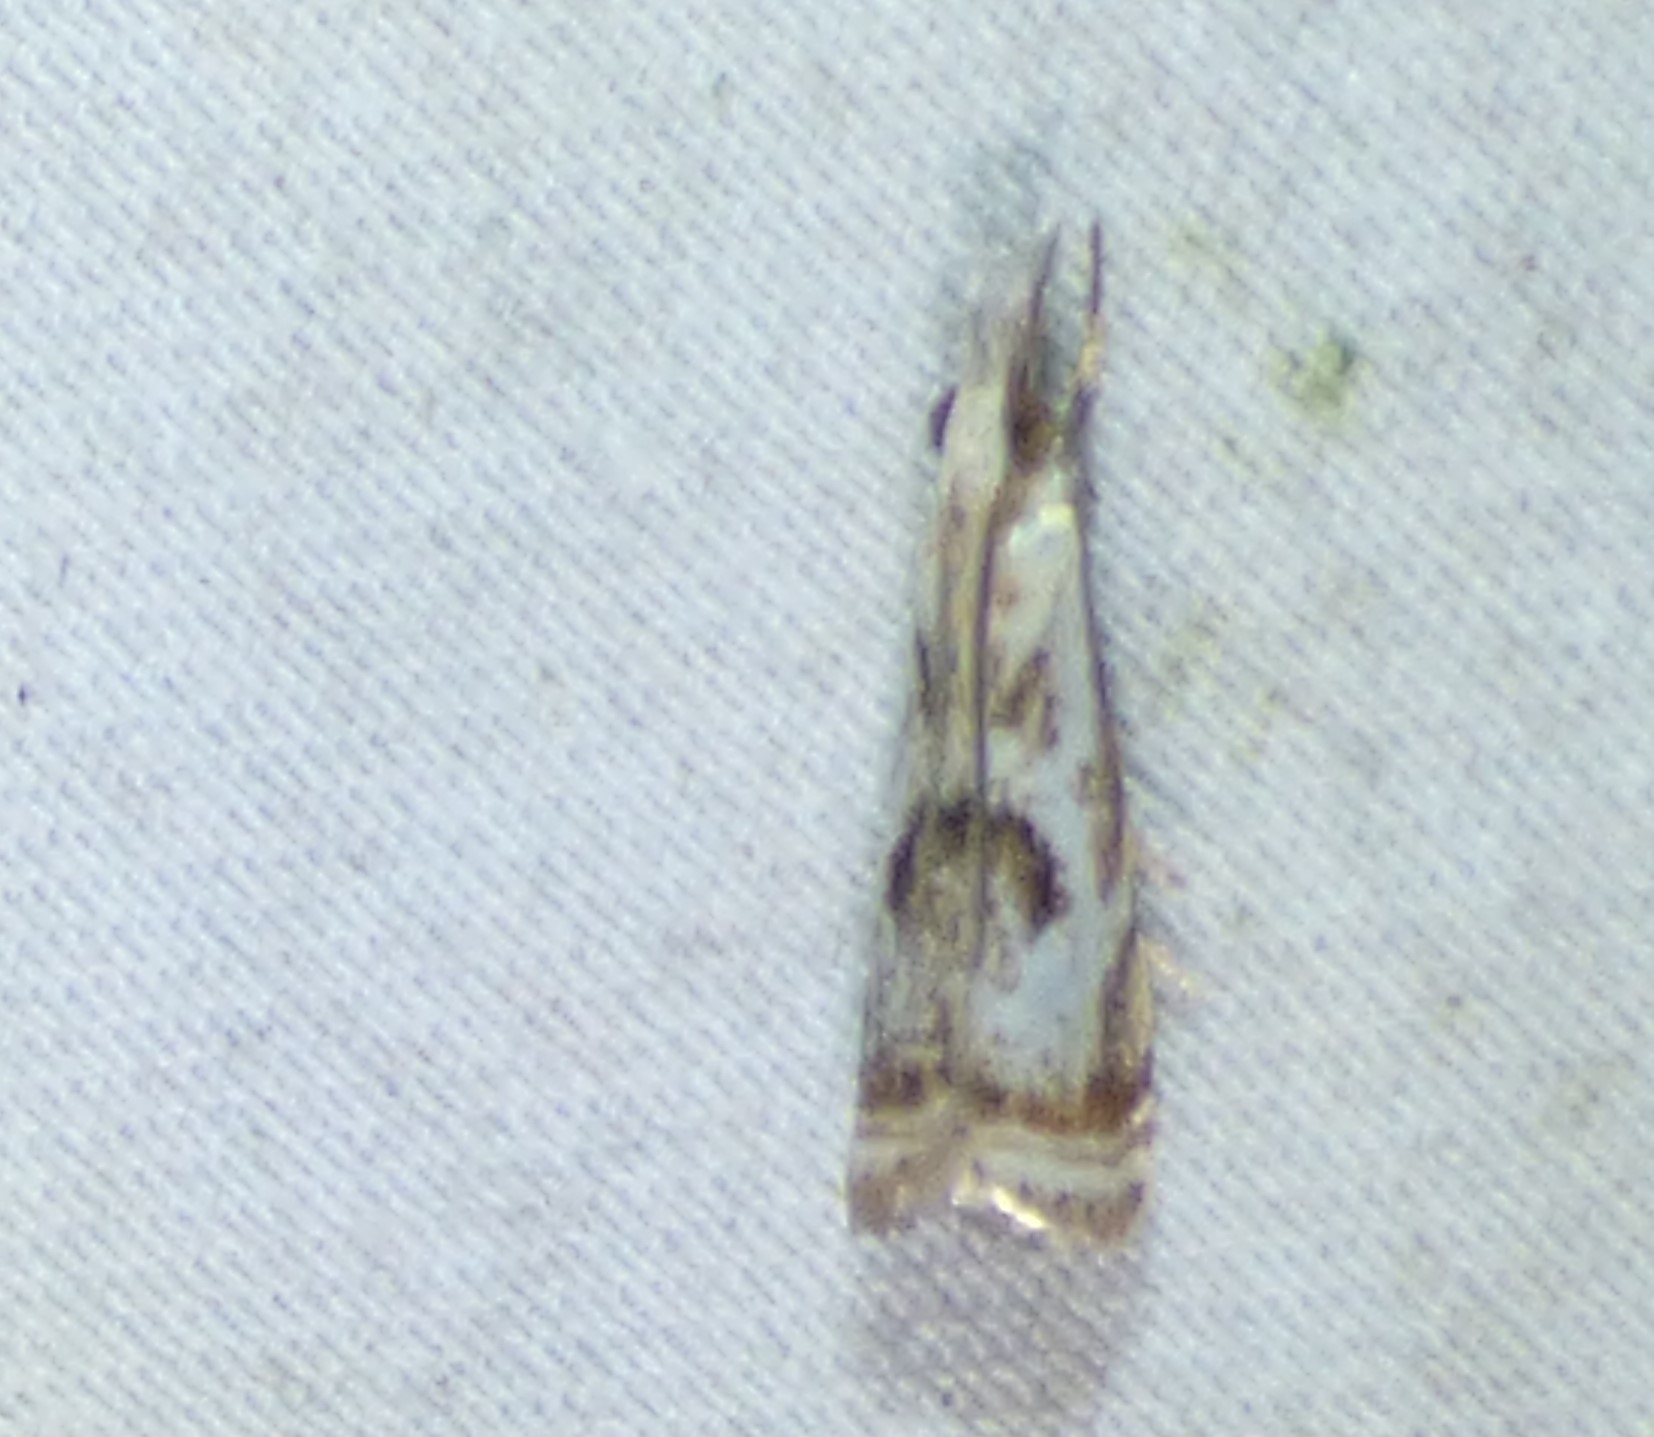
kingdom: Animalia
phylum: Arthropoda
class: Insecta
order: Lepidoptera
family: Crambidae
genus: Microcrambus
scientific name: Microcrambus elegans
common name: Elegant grass-veneer
